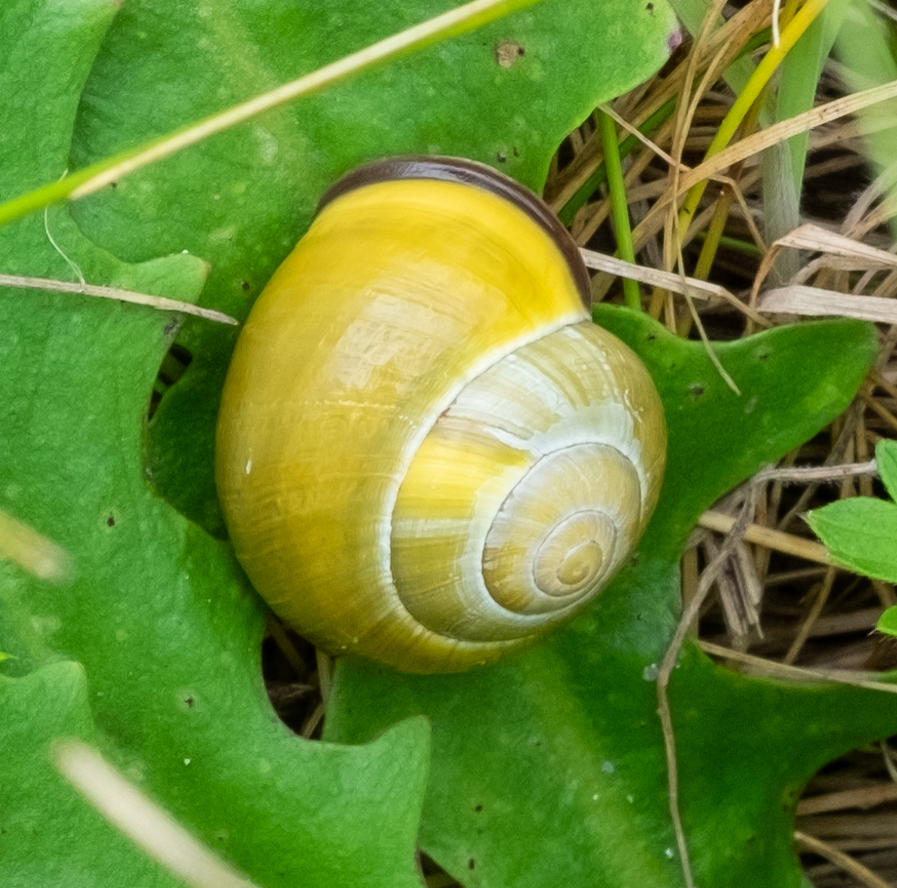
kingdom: Animalia
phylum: Mollusca
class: Gastropoda
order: Stylommatophora
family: Helicidae
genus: Cepaea
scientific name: Cepaea nemoralis
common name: Grovesnail
